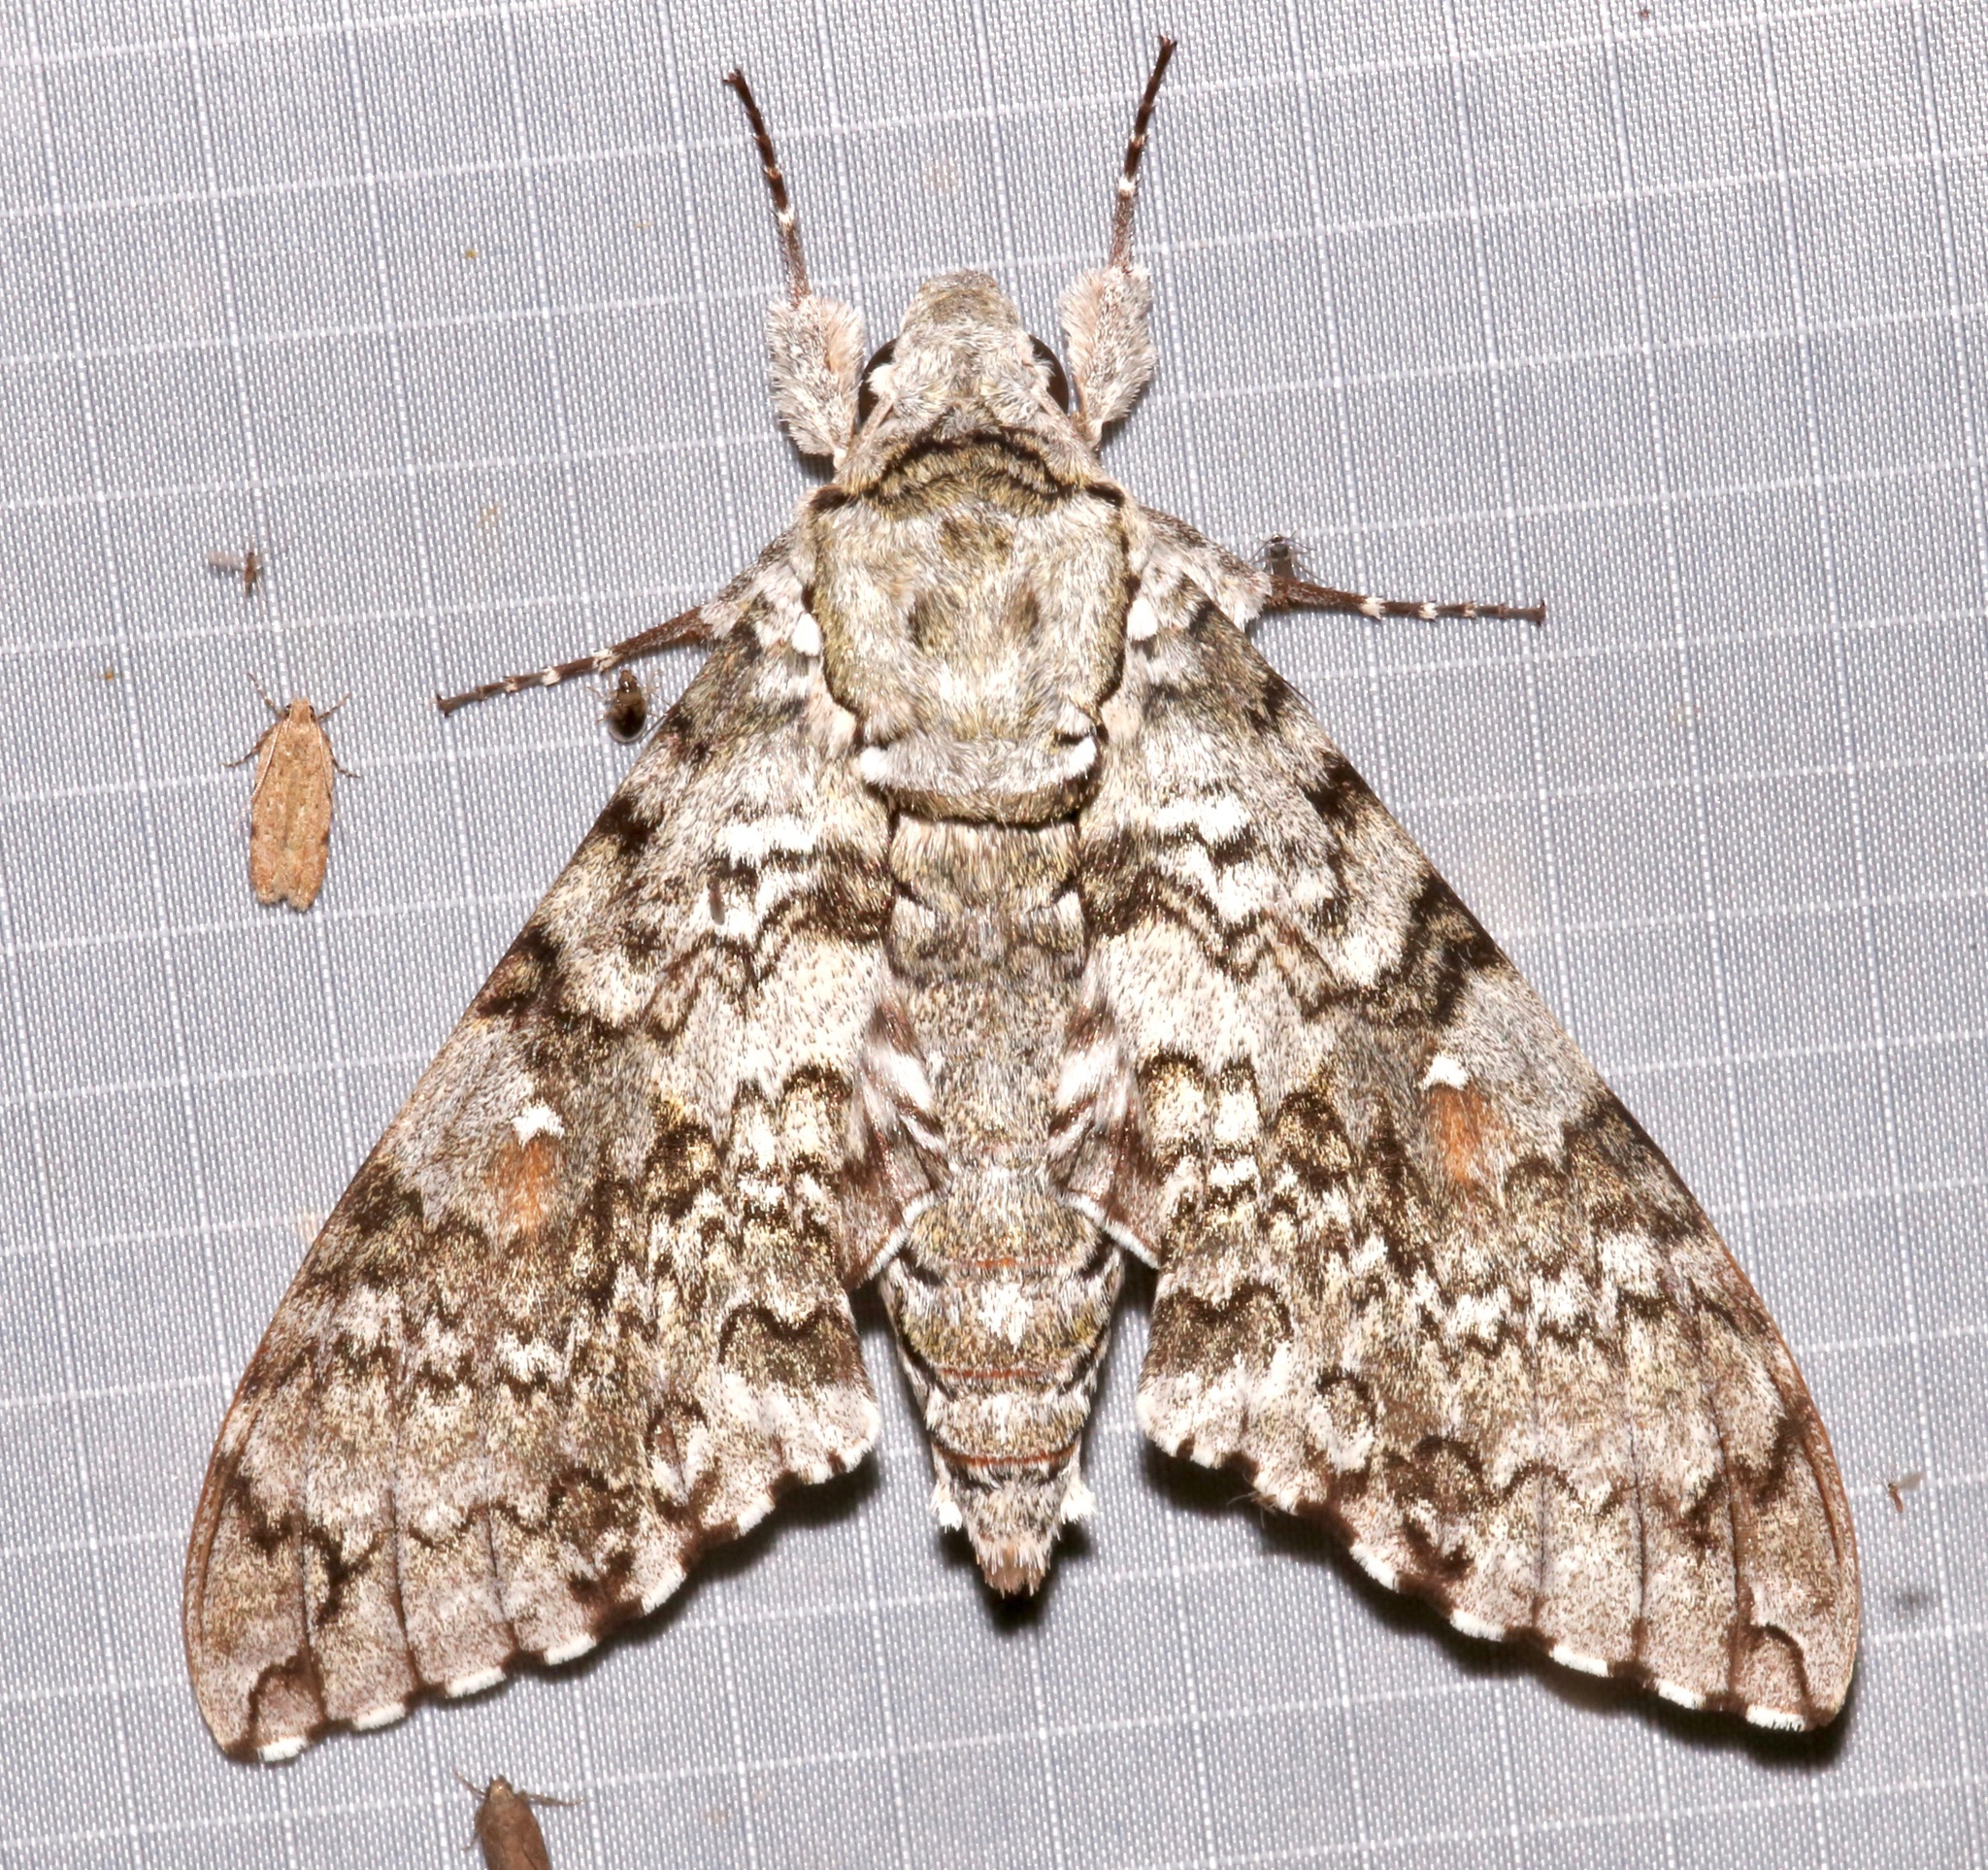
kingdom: Animalia
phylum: Arthropoda
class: Insecta
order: Lepidoptera
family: Sphingidae
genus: Manduca
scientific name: Manduca florestan
